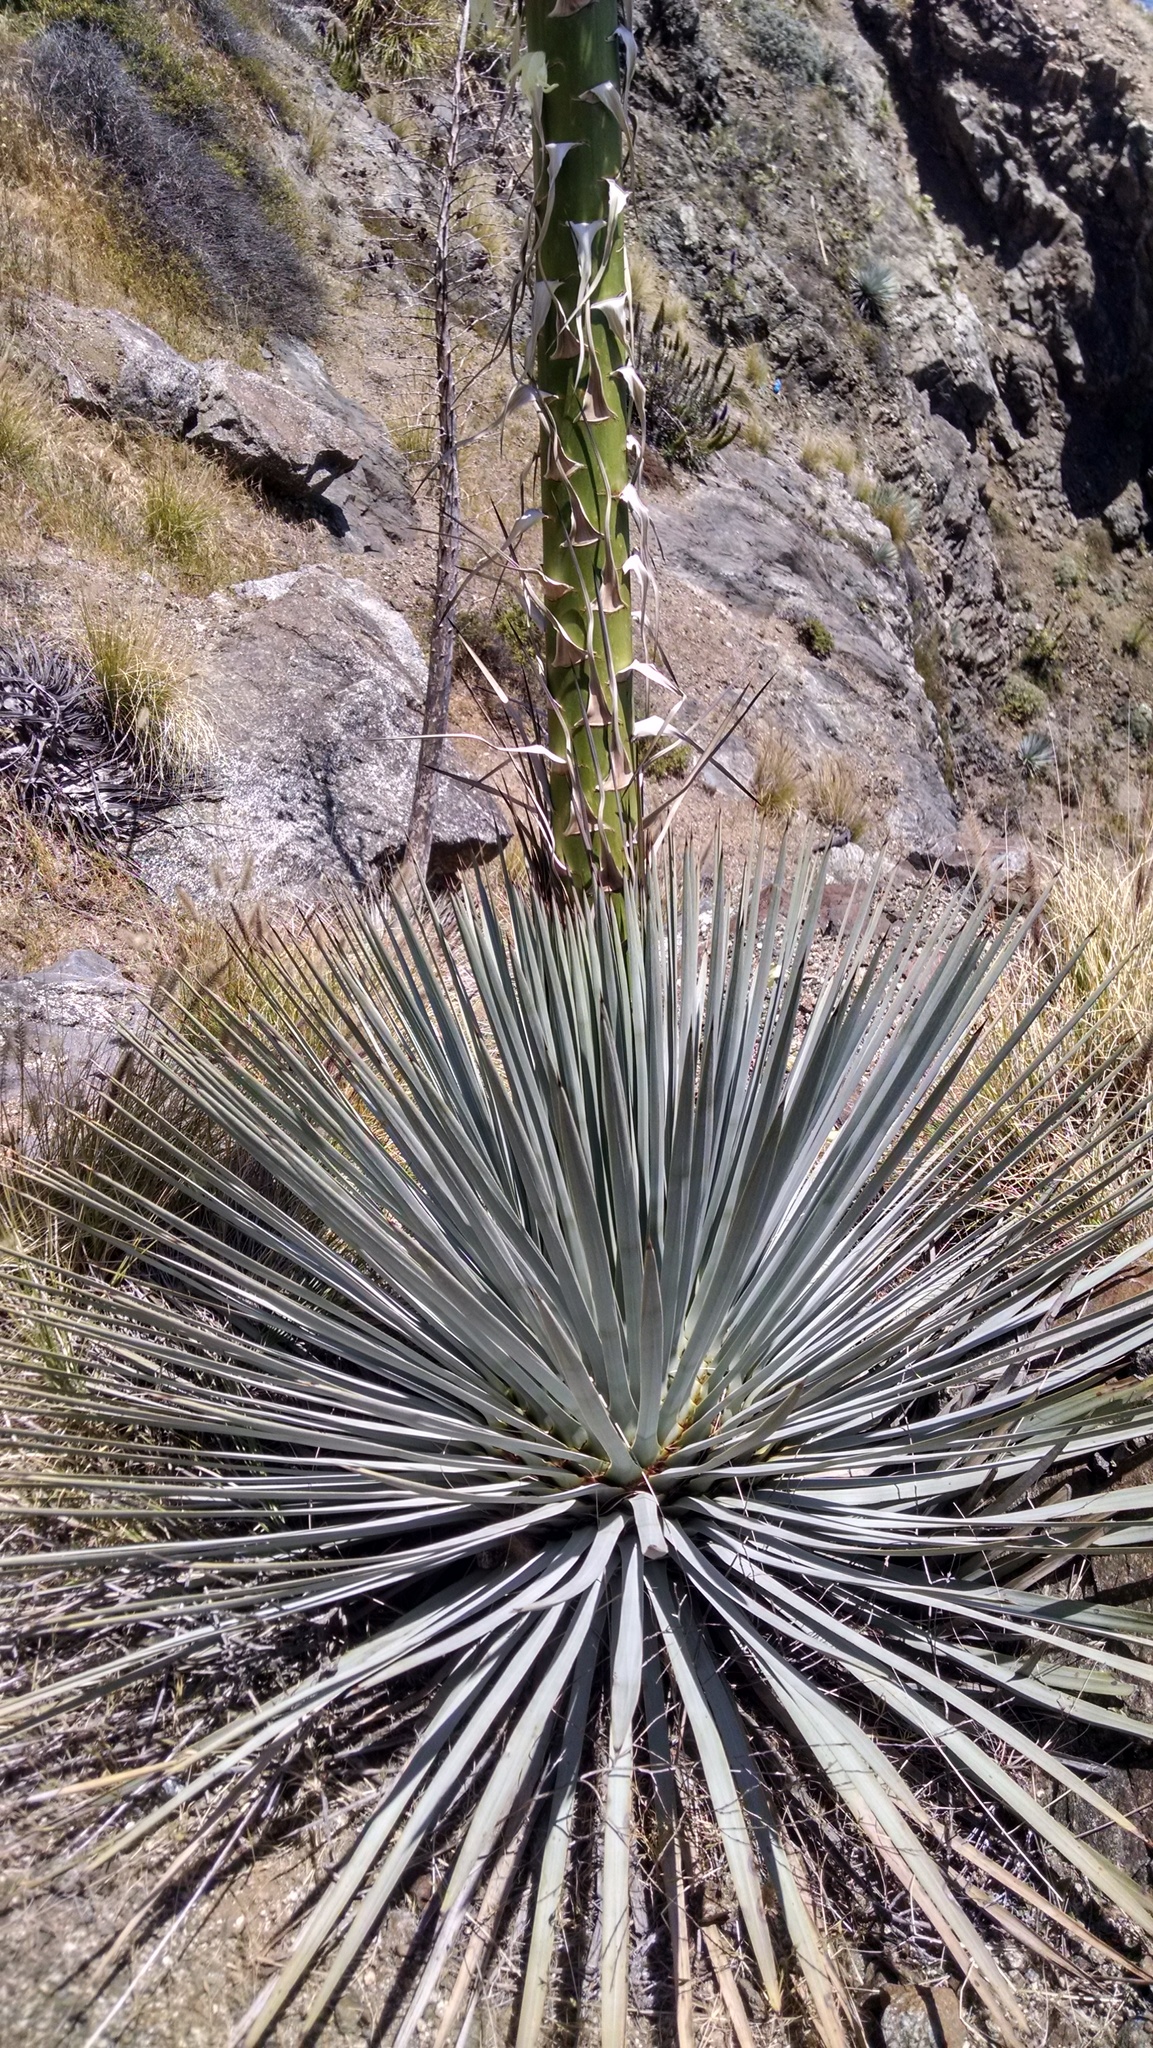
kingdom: Plantae
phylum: Tracheophyta
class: Liliopsida
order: Asparagales
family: Asparagaceae
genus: Hesperoyucca
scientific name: Hesperoyucca whipplei
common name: Our lord's-candle
